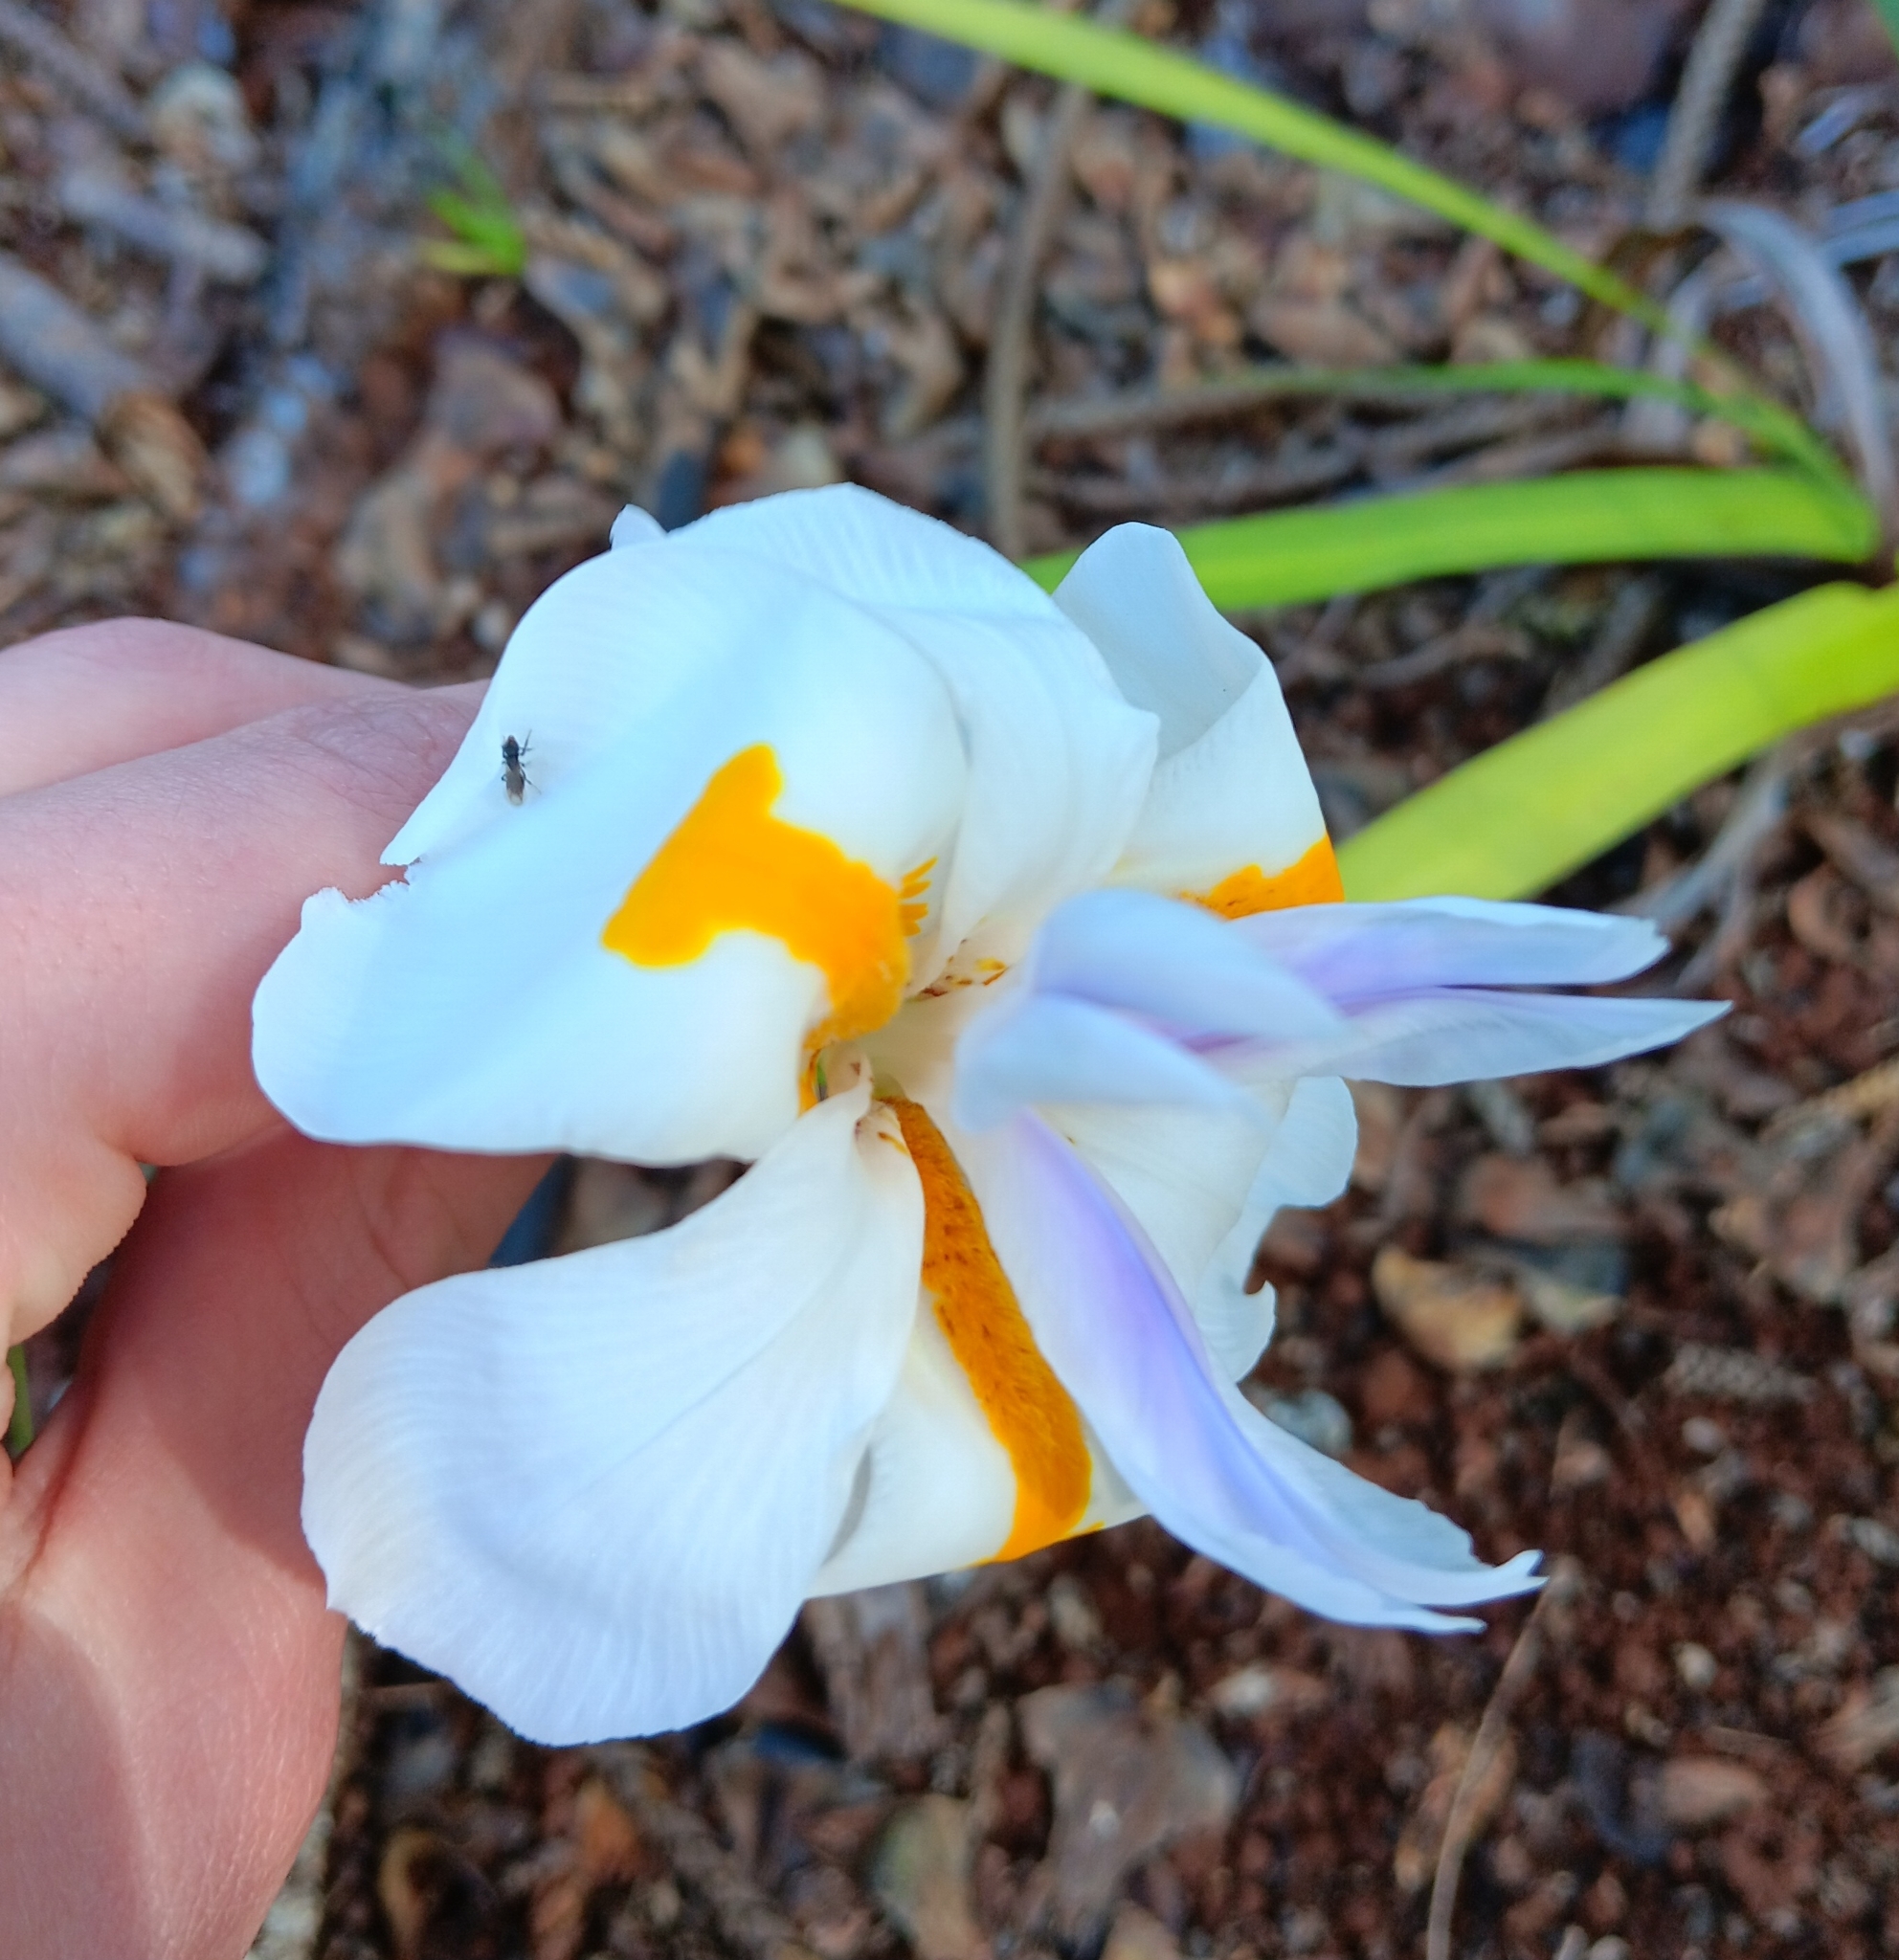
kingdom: Plantae
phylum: Tracheophyta
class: Liliopsida
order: Asparagales
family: Iridaceae
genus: Dietes
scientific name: Dietes grandiflora
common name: Wild iris
